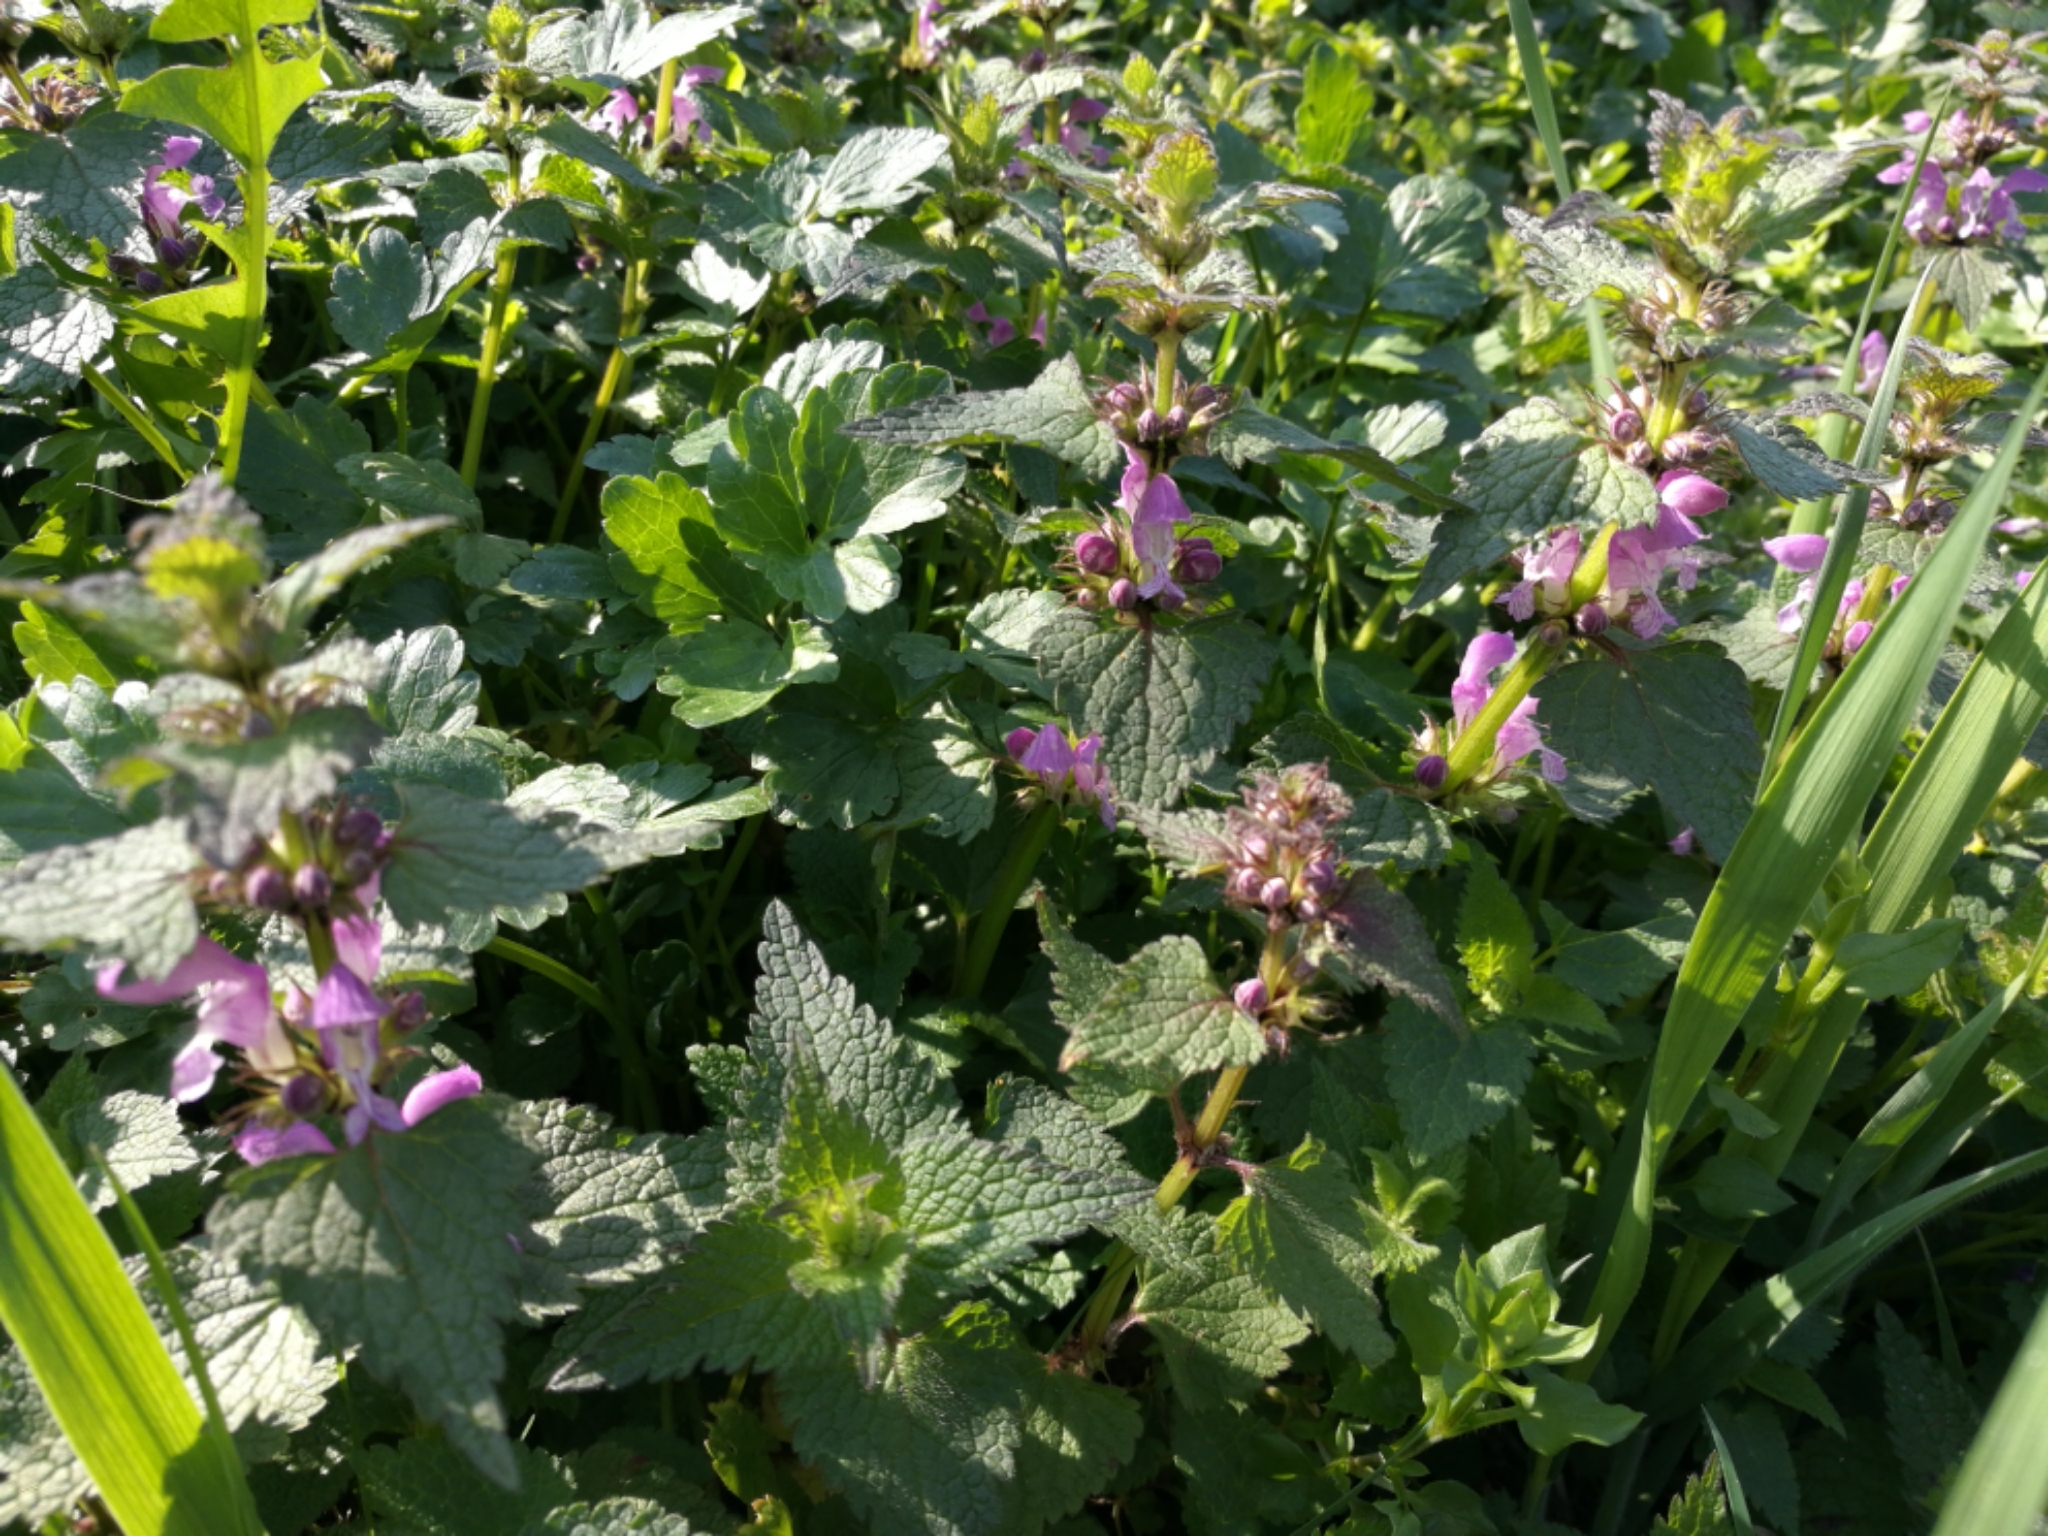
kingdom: Plantae
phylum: Tracheophyta
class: Magnoliopsida
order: Lamiales
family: Lamiaceae
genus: Lamium
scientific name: Lamium maculatum
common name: Spotted dead-nettle
